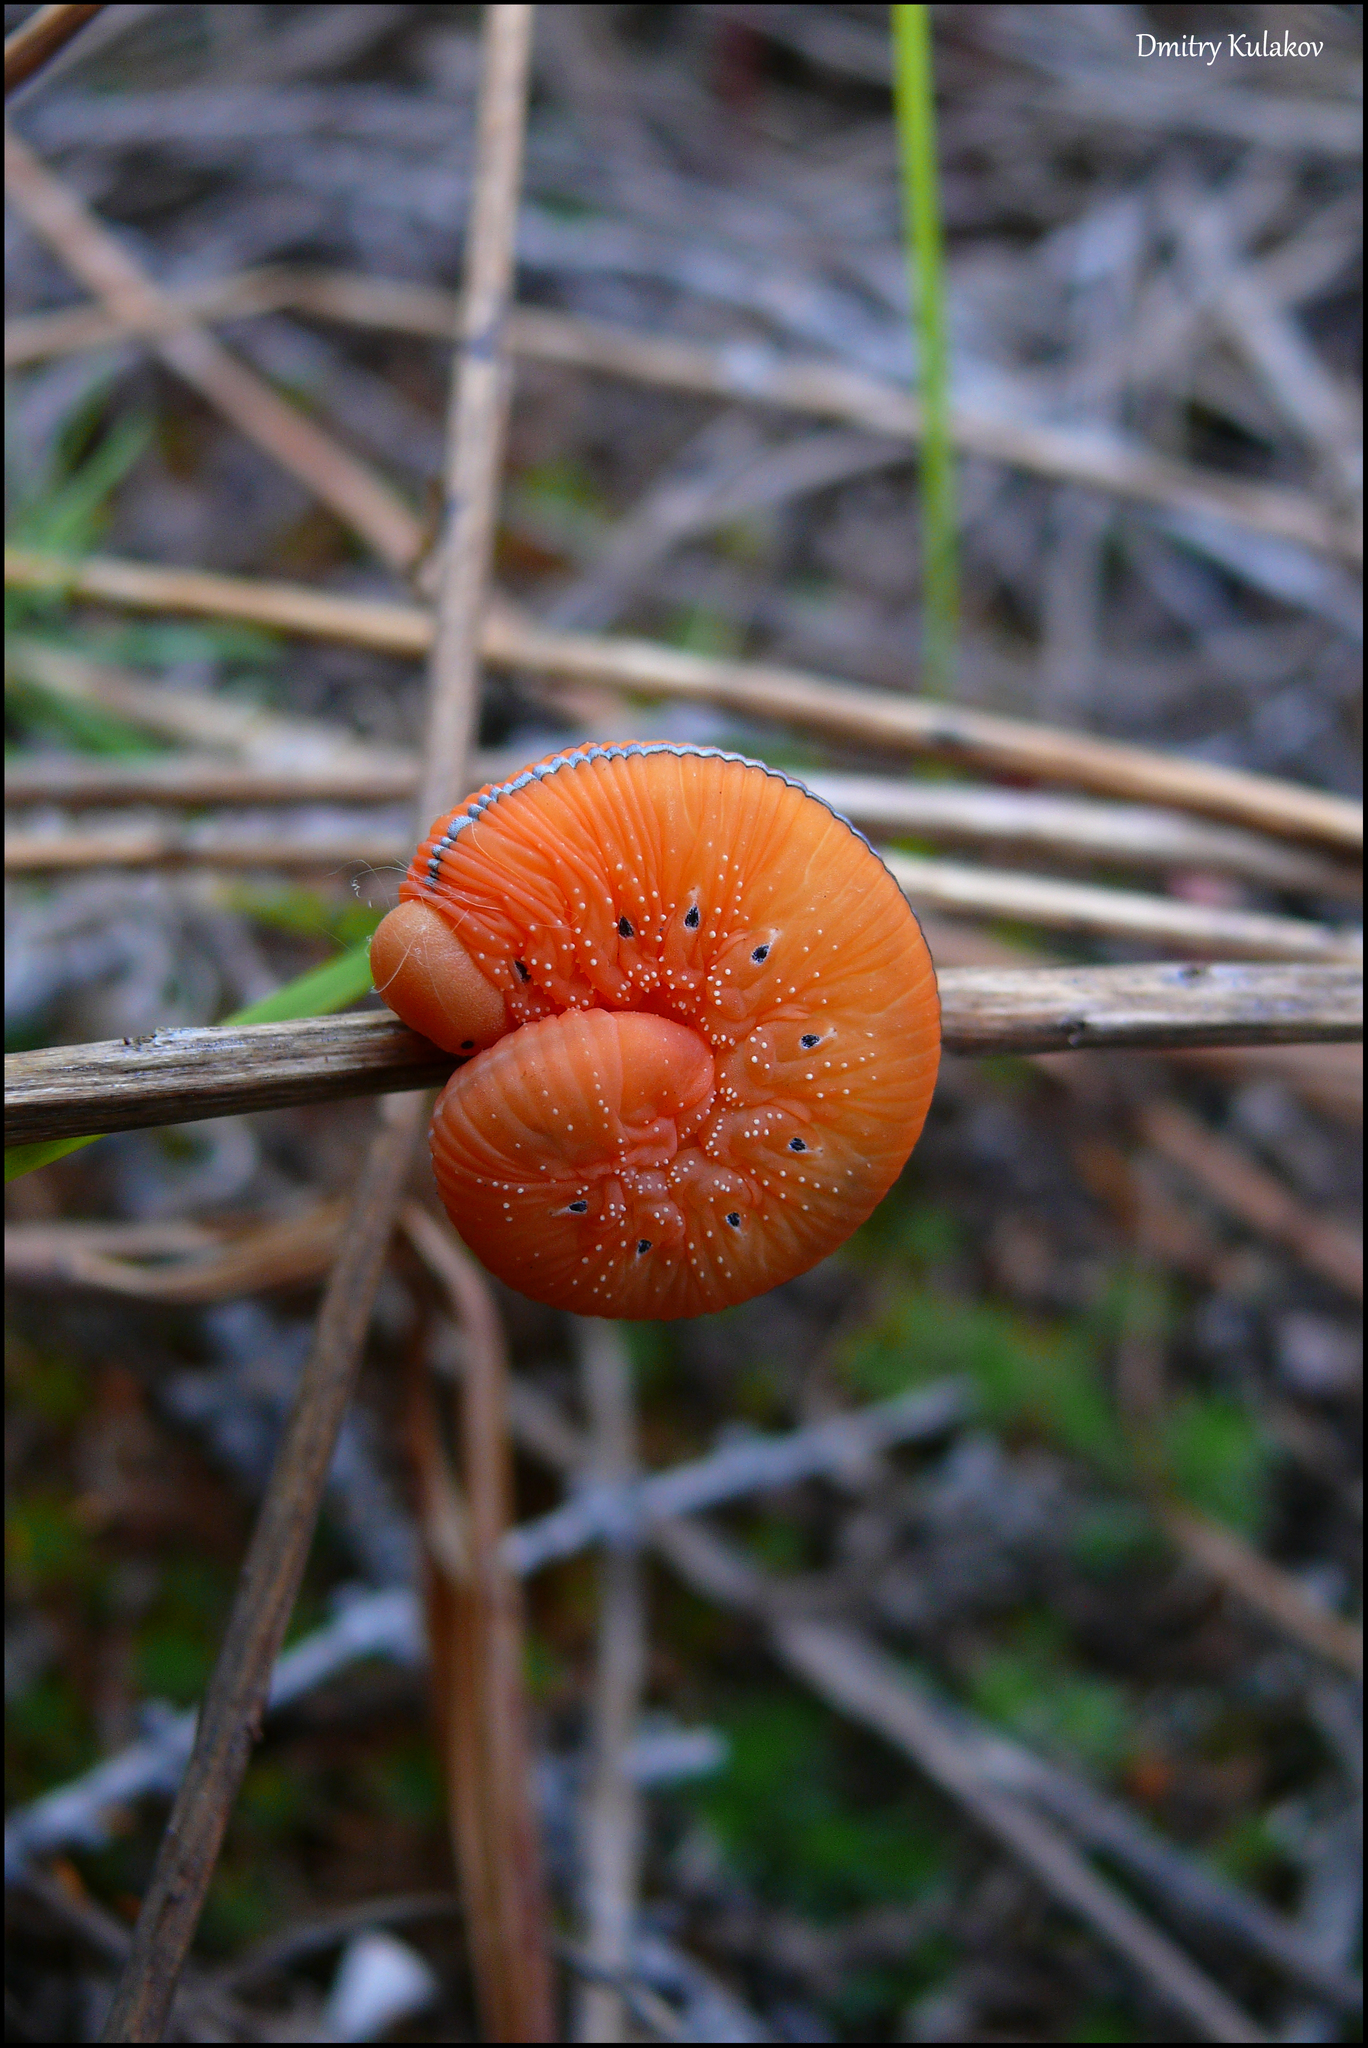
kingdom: Animalia
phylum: Arthropoda
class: Insecta
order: Hymenoptera
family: Cimbicidae
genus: Cimbex
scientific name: Cimbex luteus
